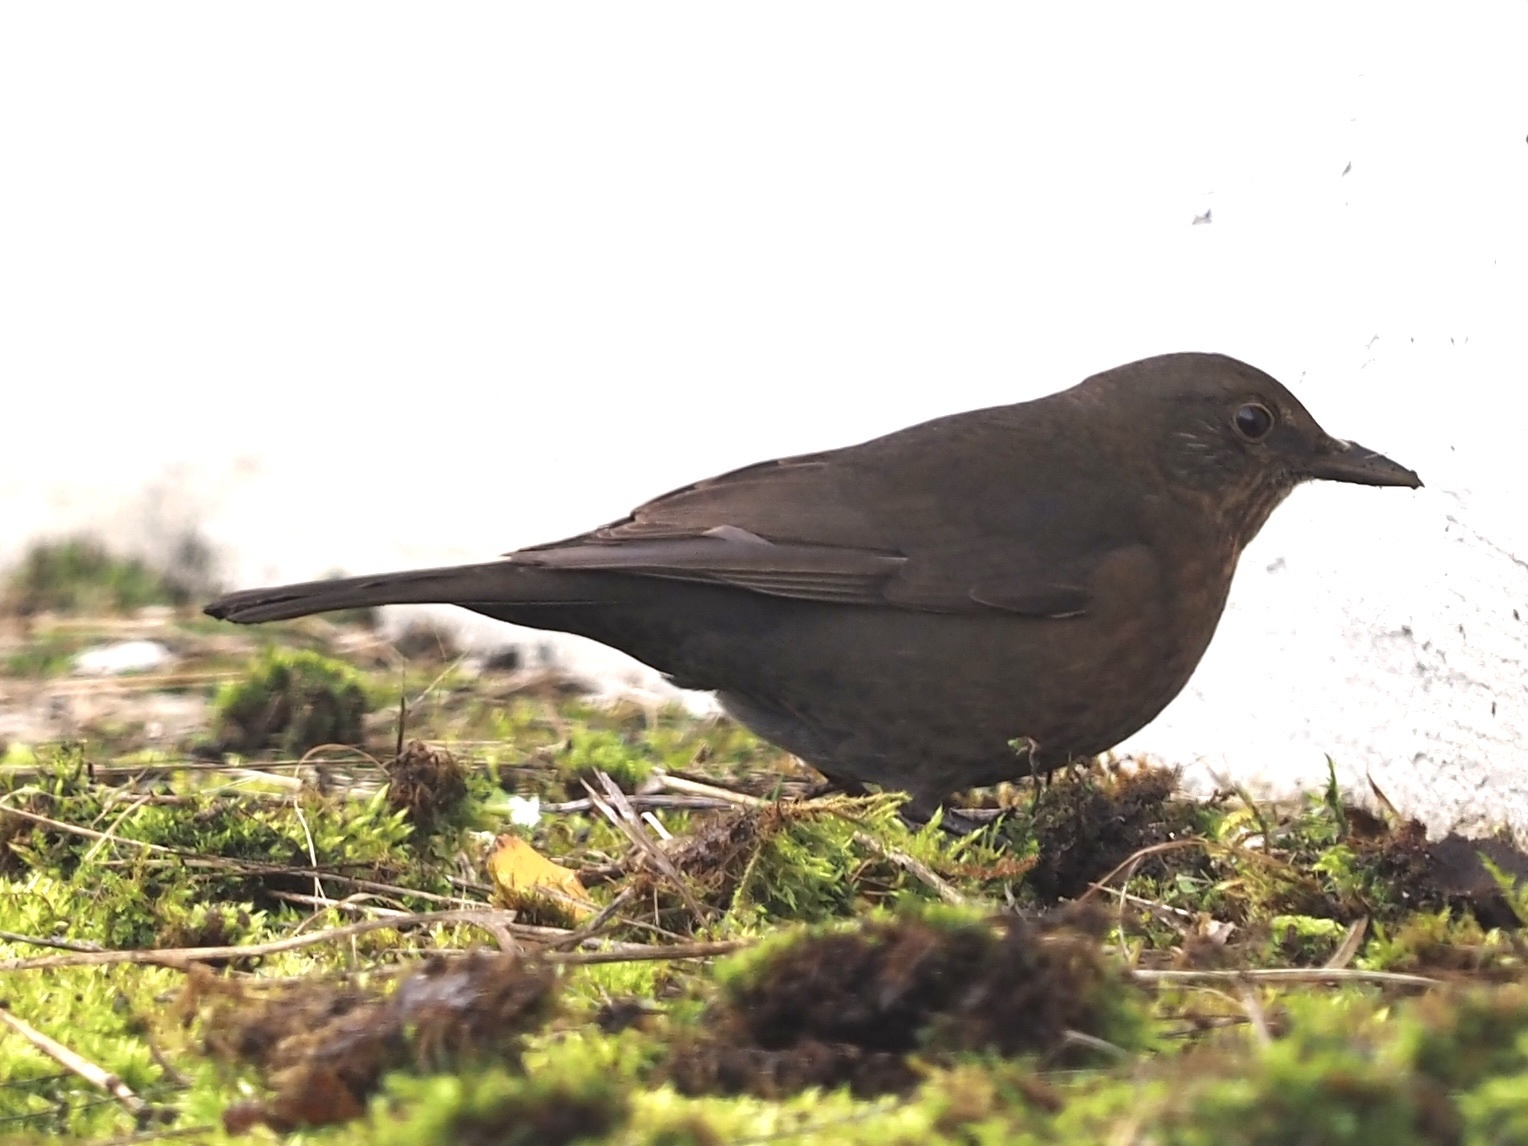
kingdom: Animalia
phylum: Chordata
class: Aves
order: Passeriformes
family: Turdidae
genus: Turdus
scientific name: Turdus merula
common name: Common blackbird
